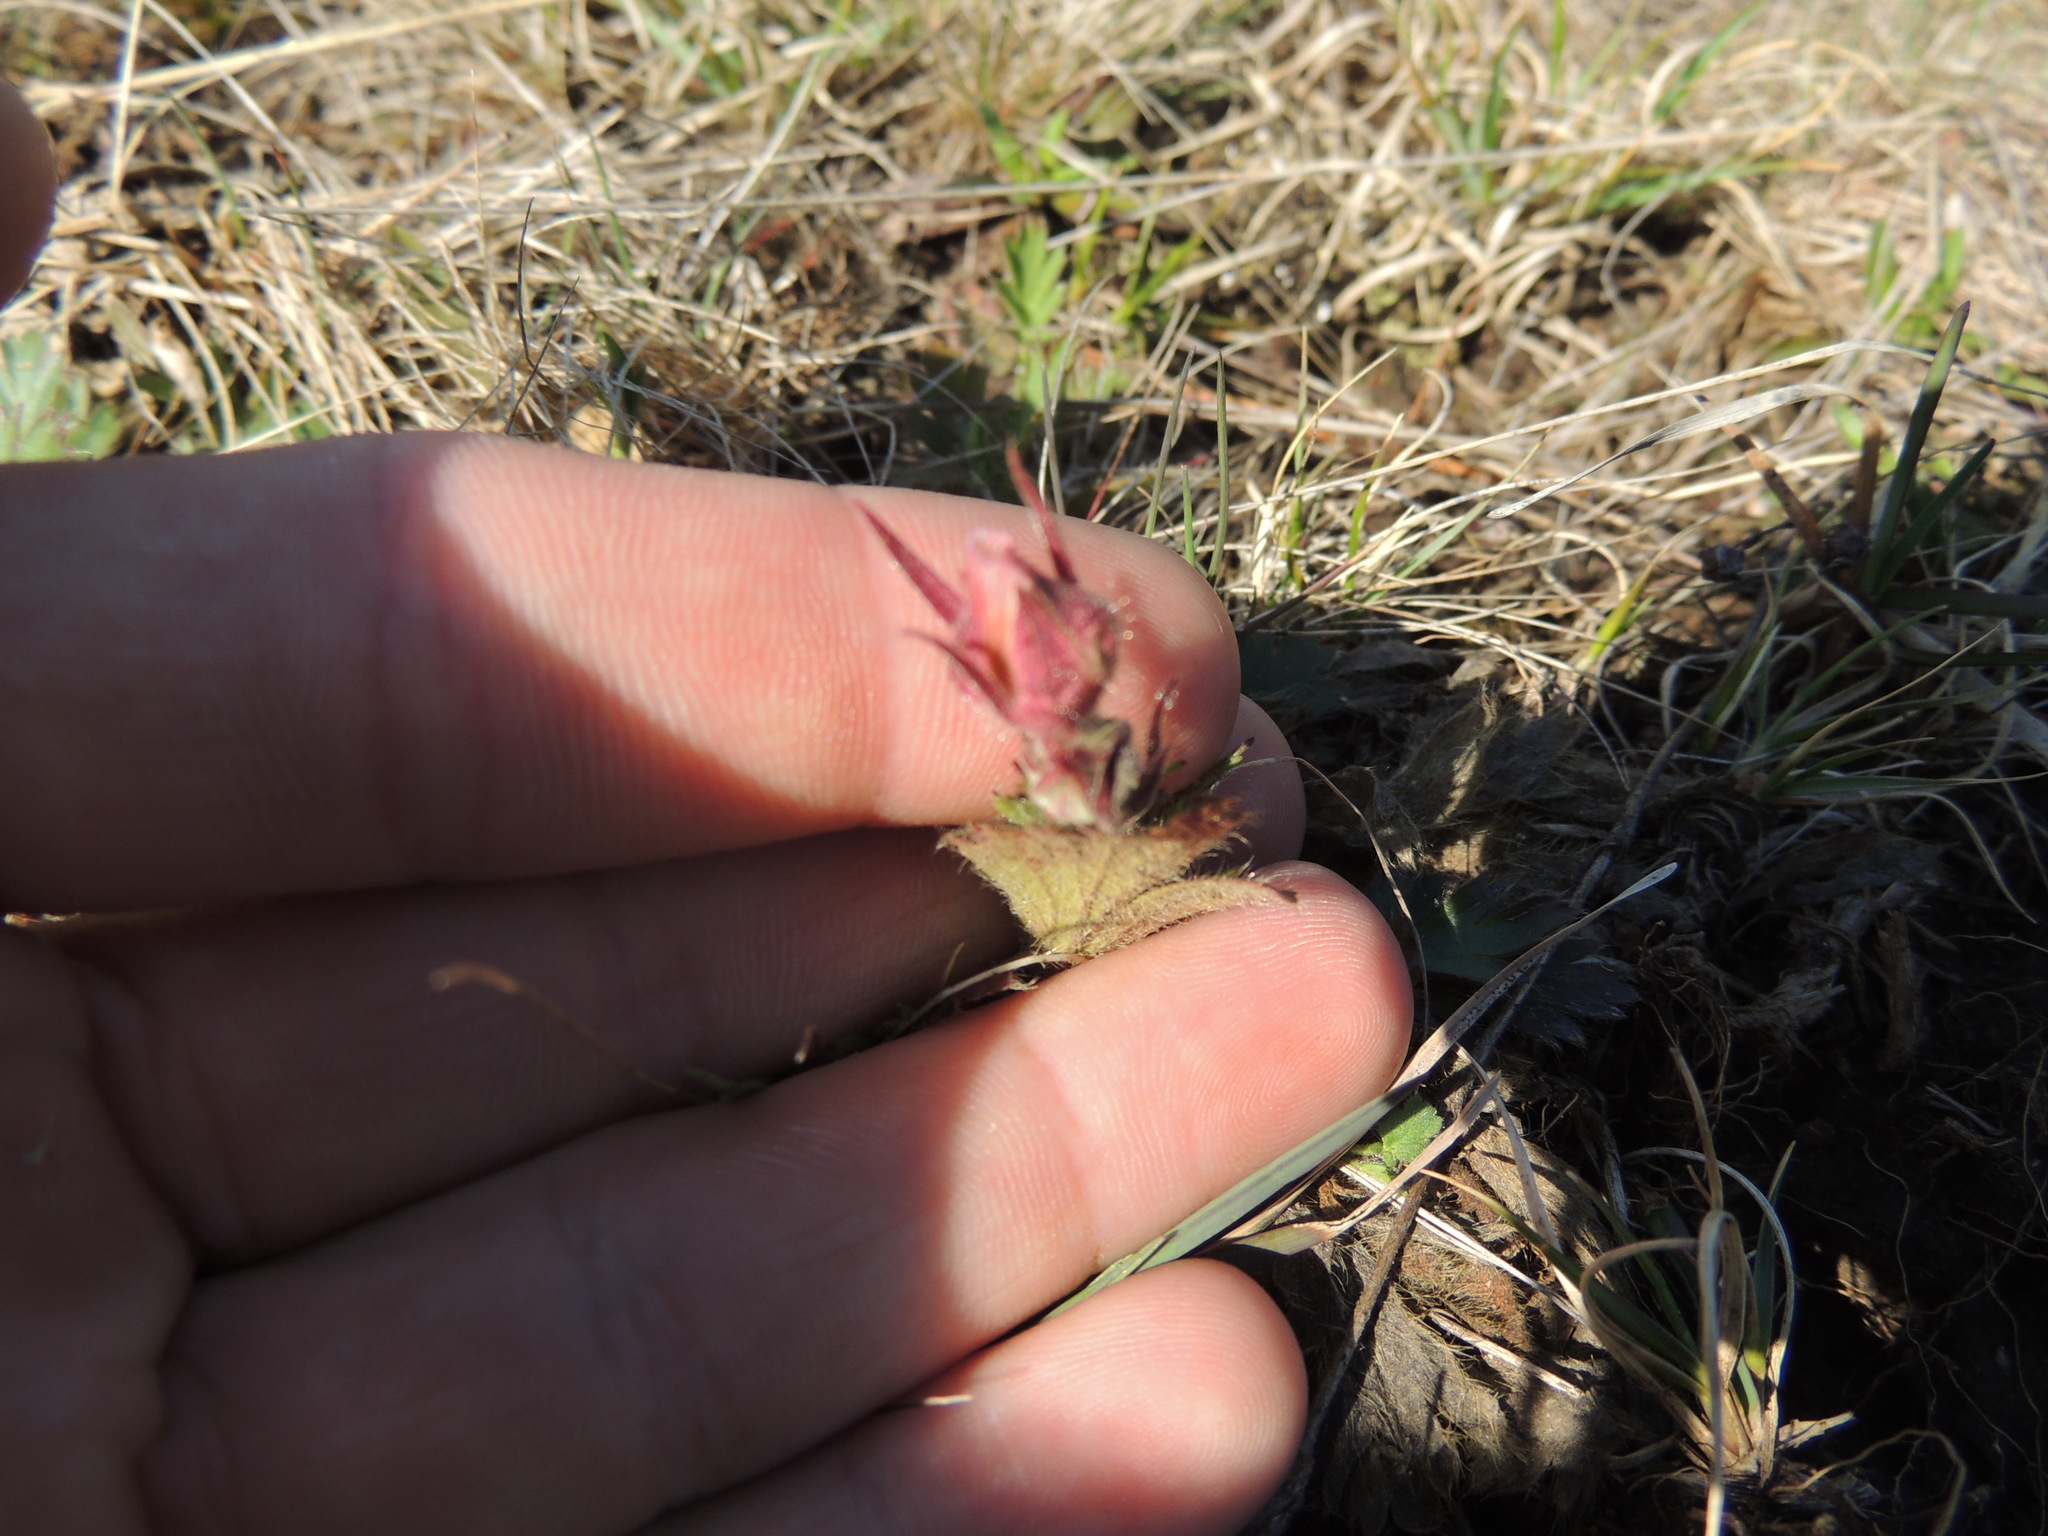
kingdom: Plantae
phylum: Tracheophyta
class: Magnoliopsida
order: Rosales
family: Rosaceae
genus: Geum
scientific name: Geum triflorum
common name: Old man's whiskers
